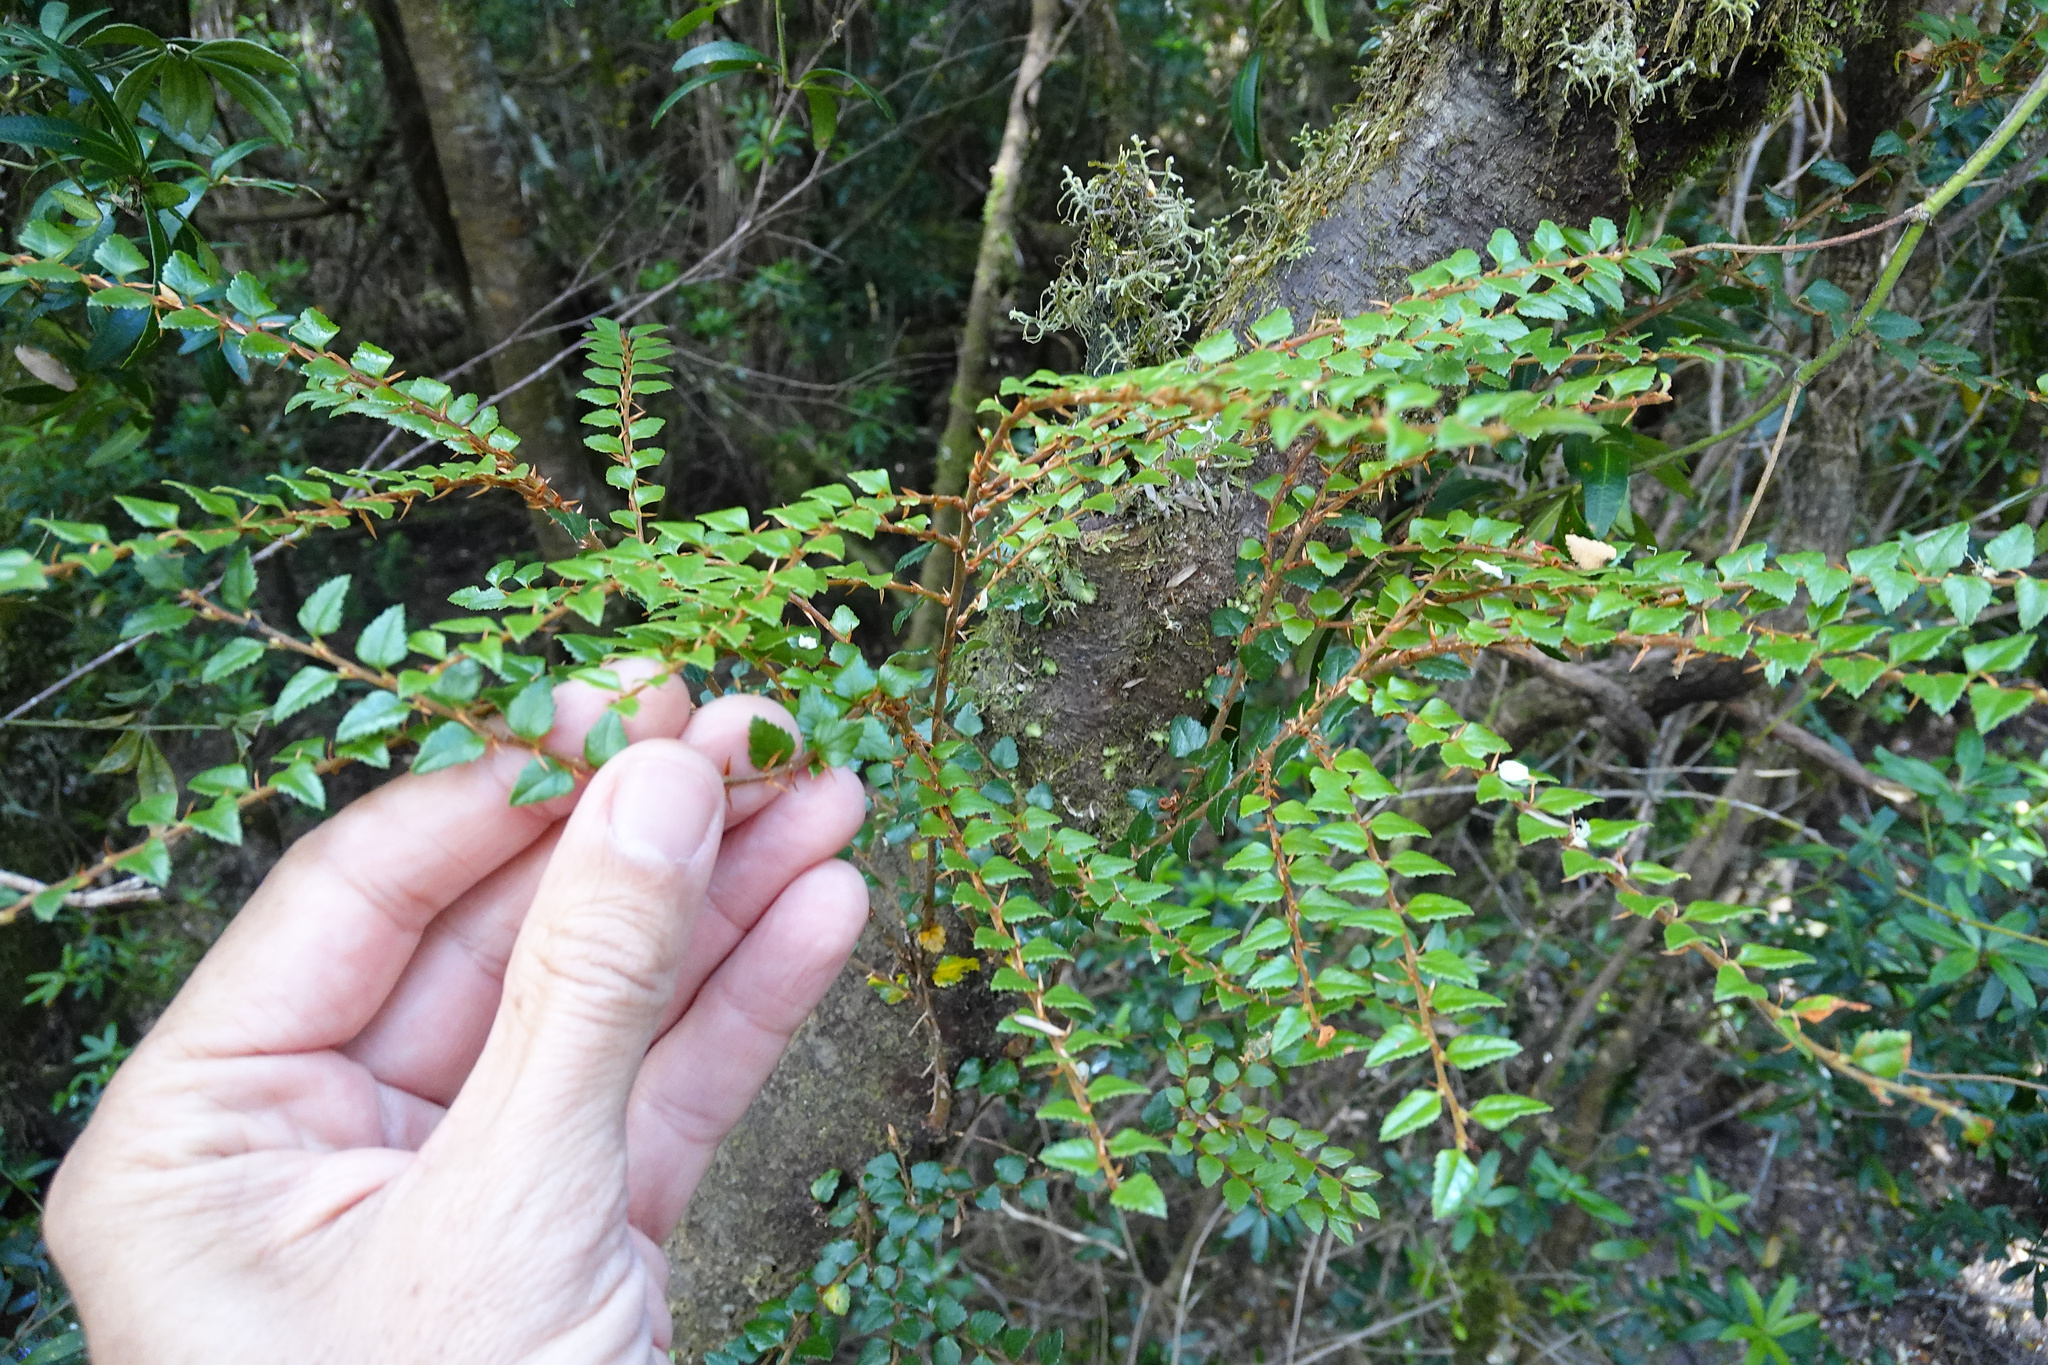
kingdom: Plantae
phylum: Tracheophyta
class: Magnoliopsida
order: Fagales
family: Nothofagaceae
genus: Nothofagus
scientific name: Nothofagus cunninghamii
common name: Myrtle beech
